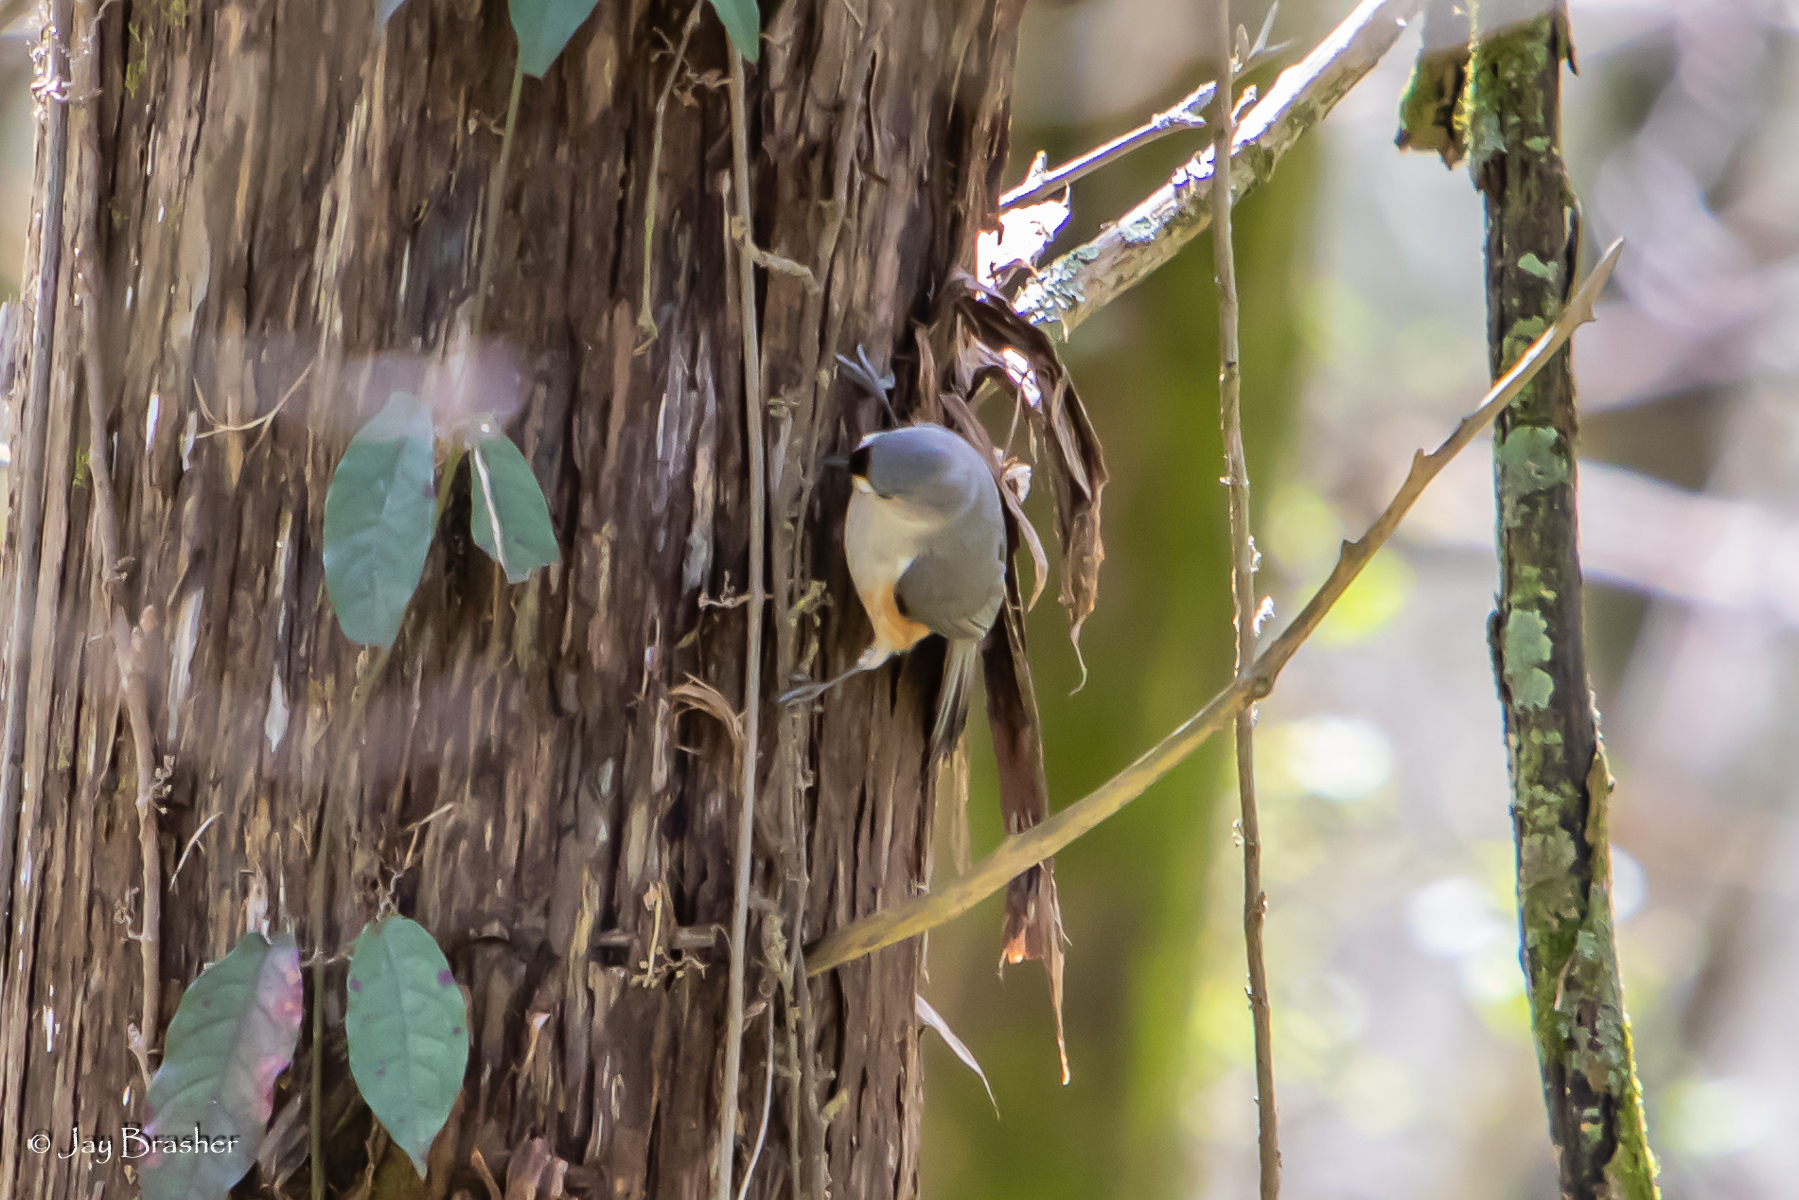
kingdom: Animalia
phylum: Chordata
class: Aves
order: Passeriformes
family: Paridae
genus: Baeolophus
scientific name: Baeolophus bicolor
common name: Tufted titmouse
